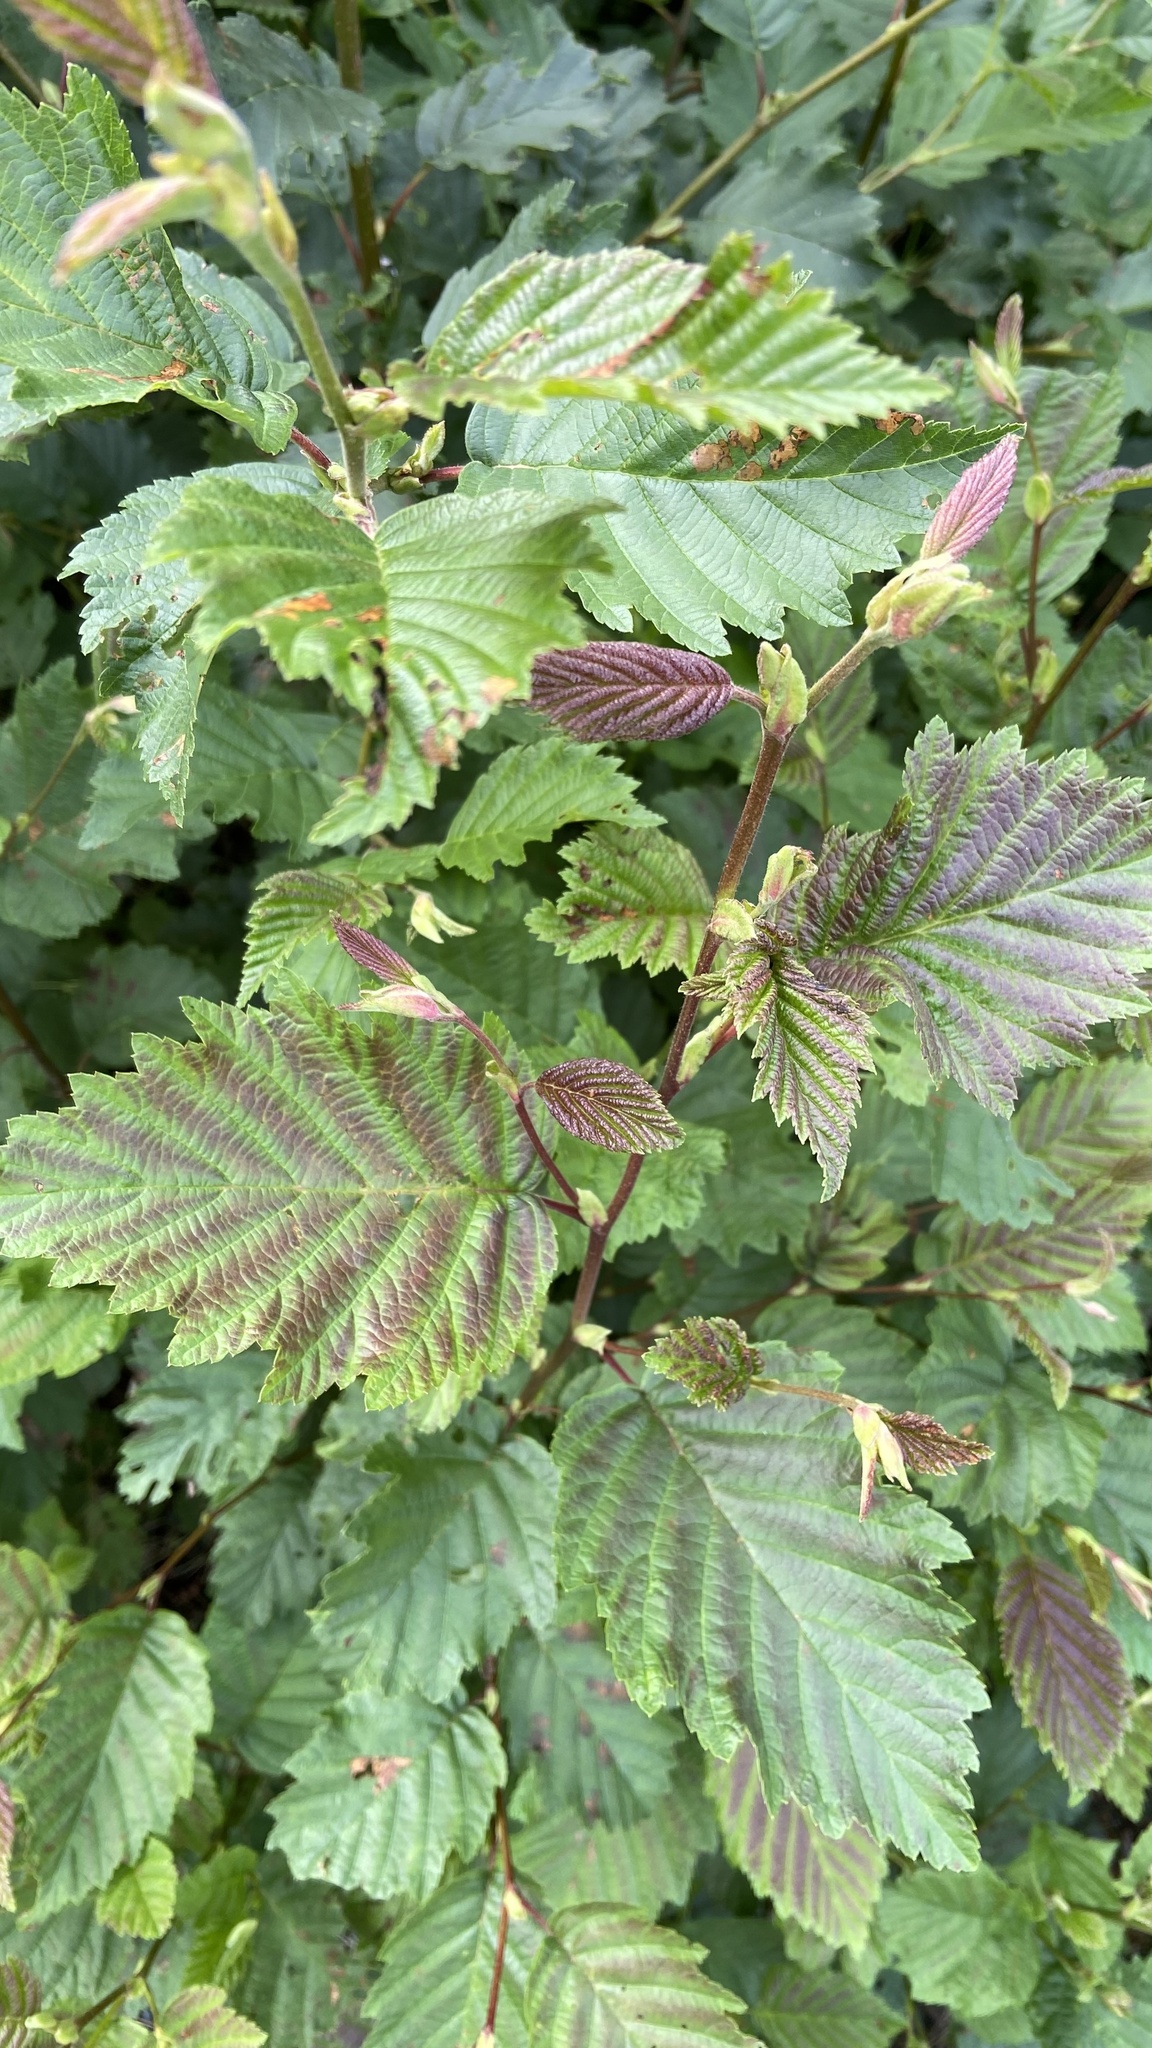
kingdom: Plantae
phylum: Tracheophyta
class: Magnoliopsida
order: Fagales
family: Betulaceae
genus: Alnus
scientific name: Alnus incana
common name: Grey alder
